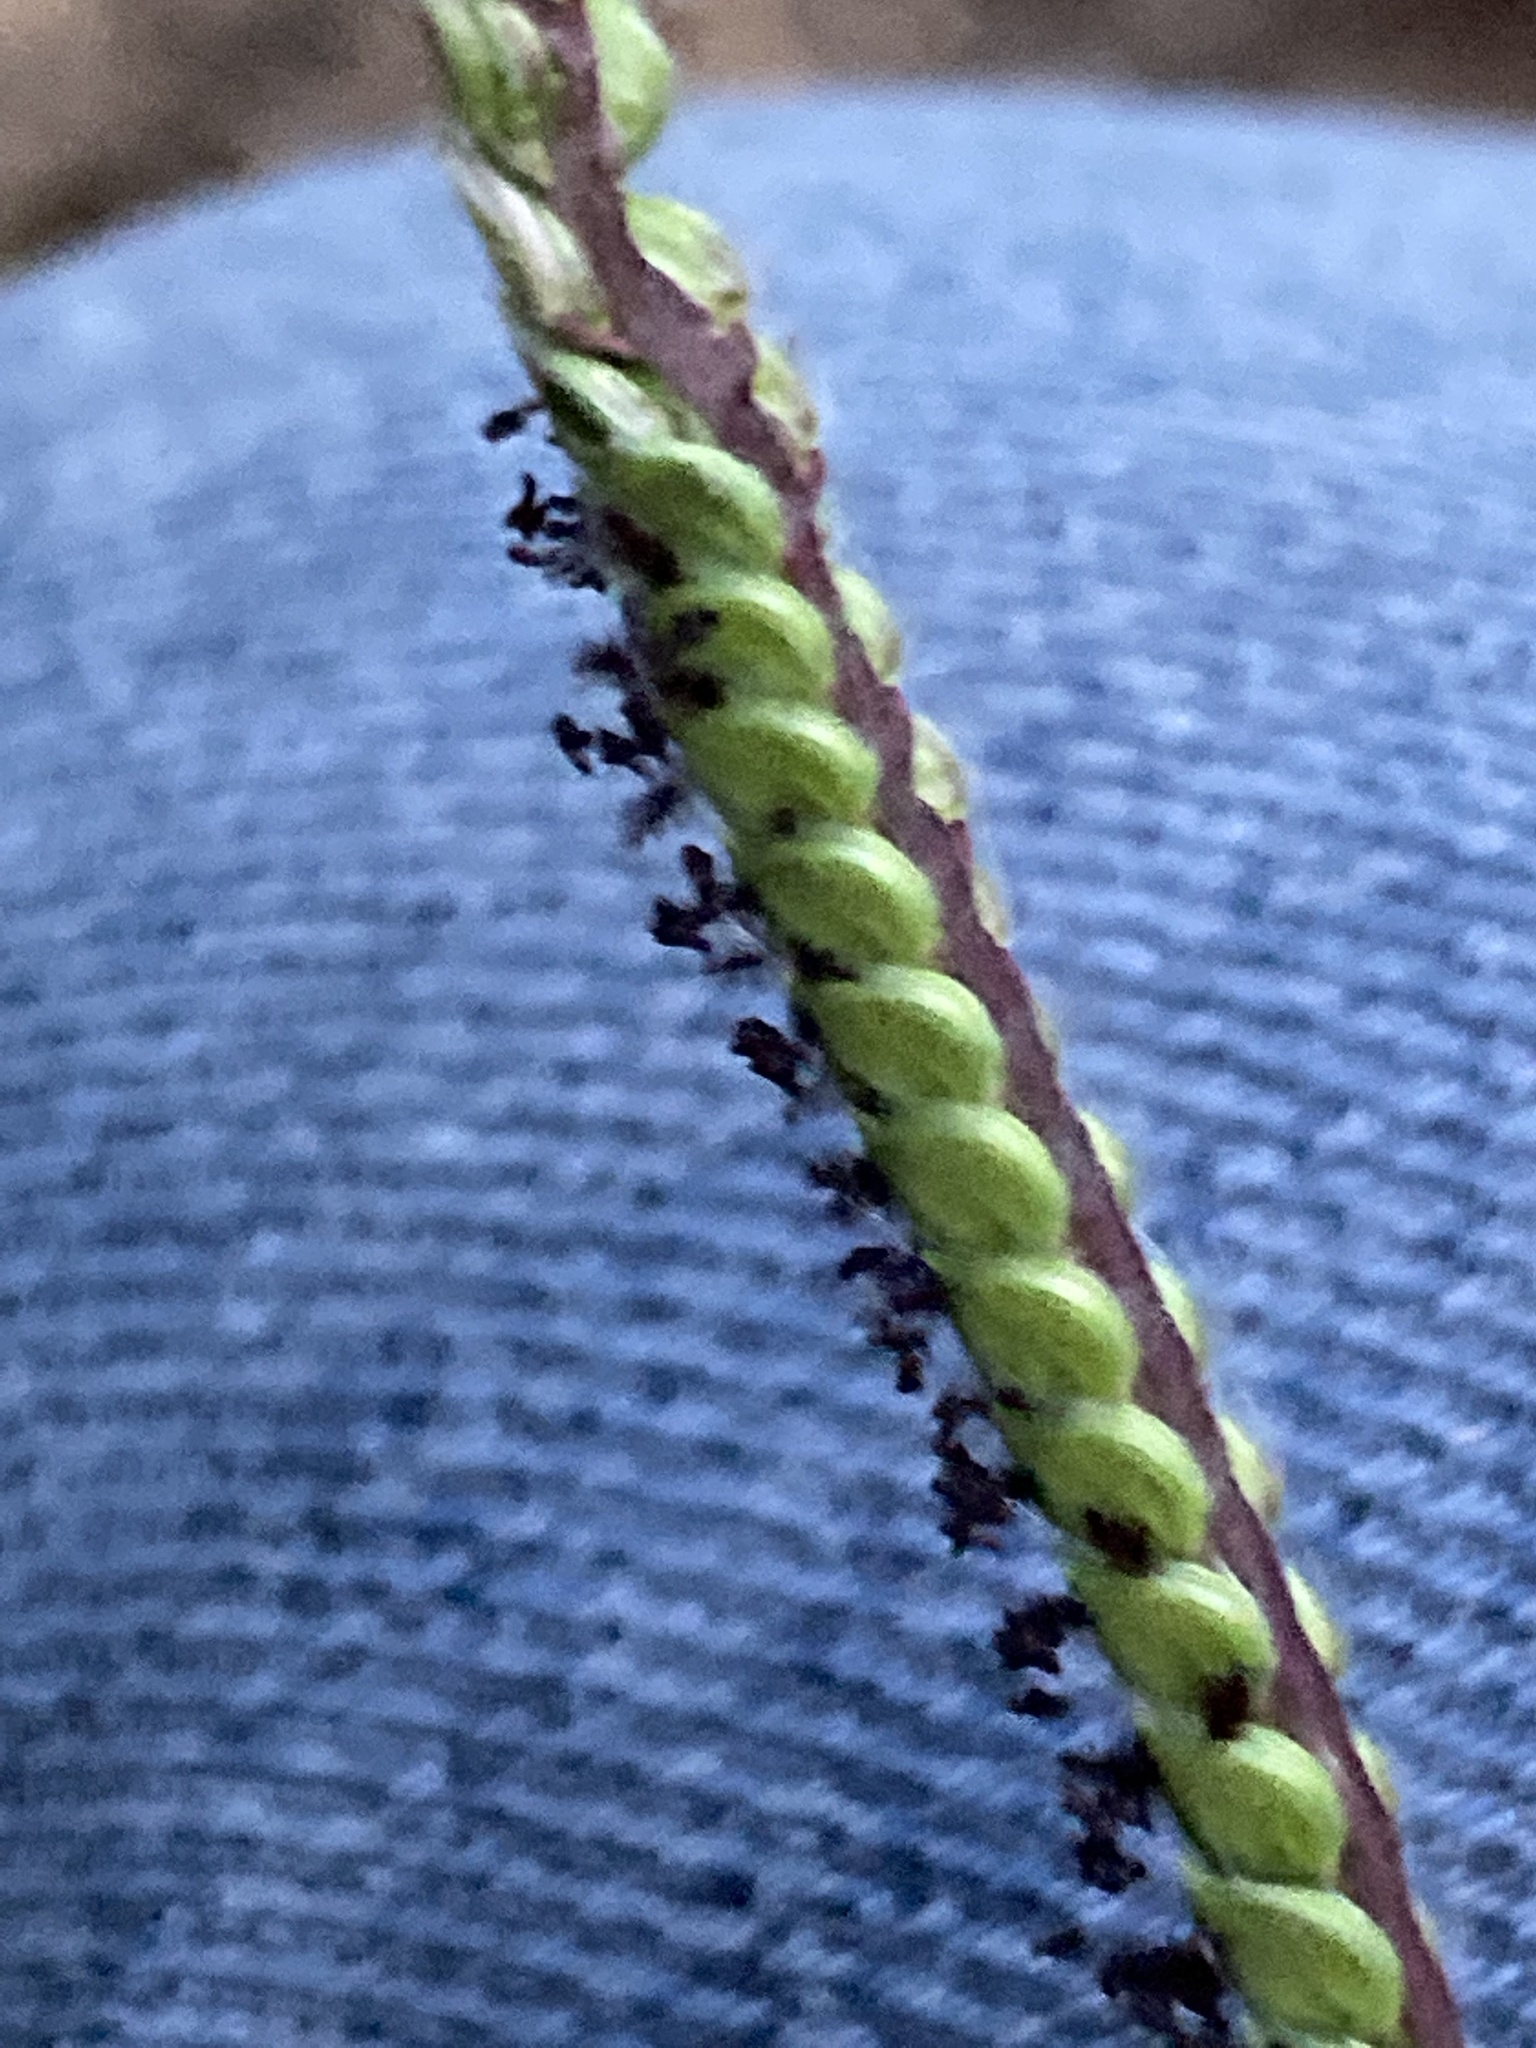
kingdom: Plantae
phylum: Tracheophyta
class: Liliopsida
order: Poales
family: Poaceae
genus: Paspalum
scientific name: Paspalum dilatatum
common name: Dallisgrass
